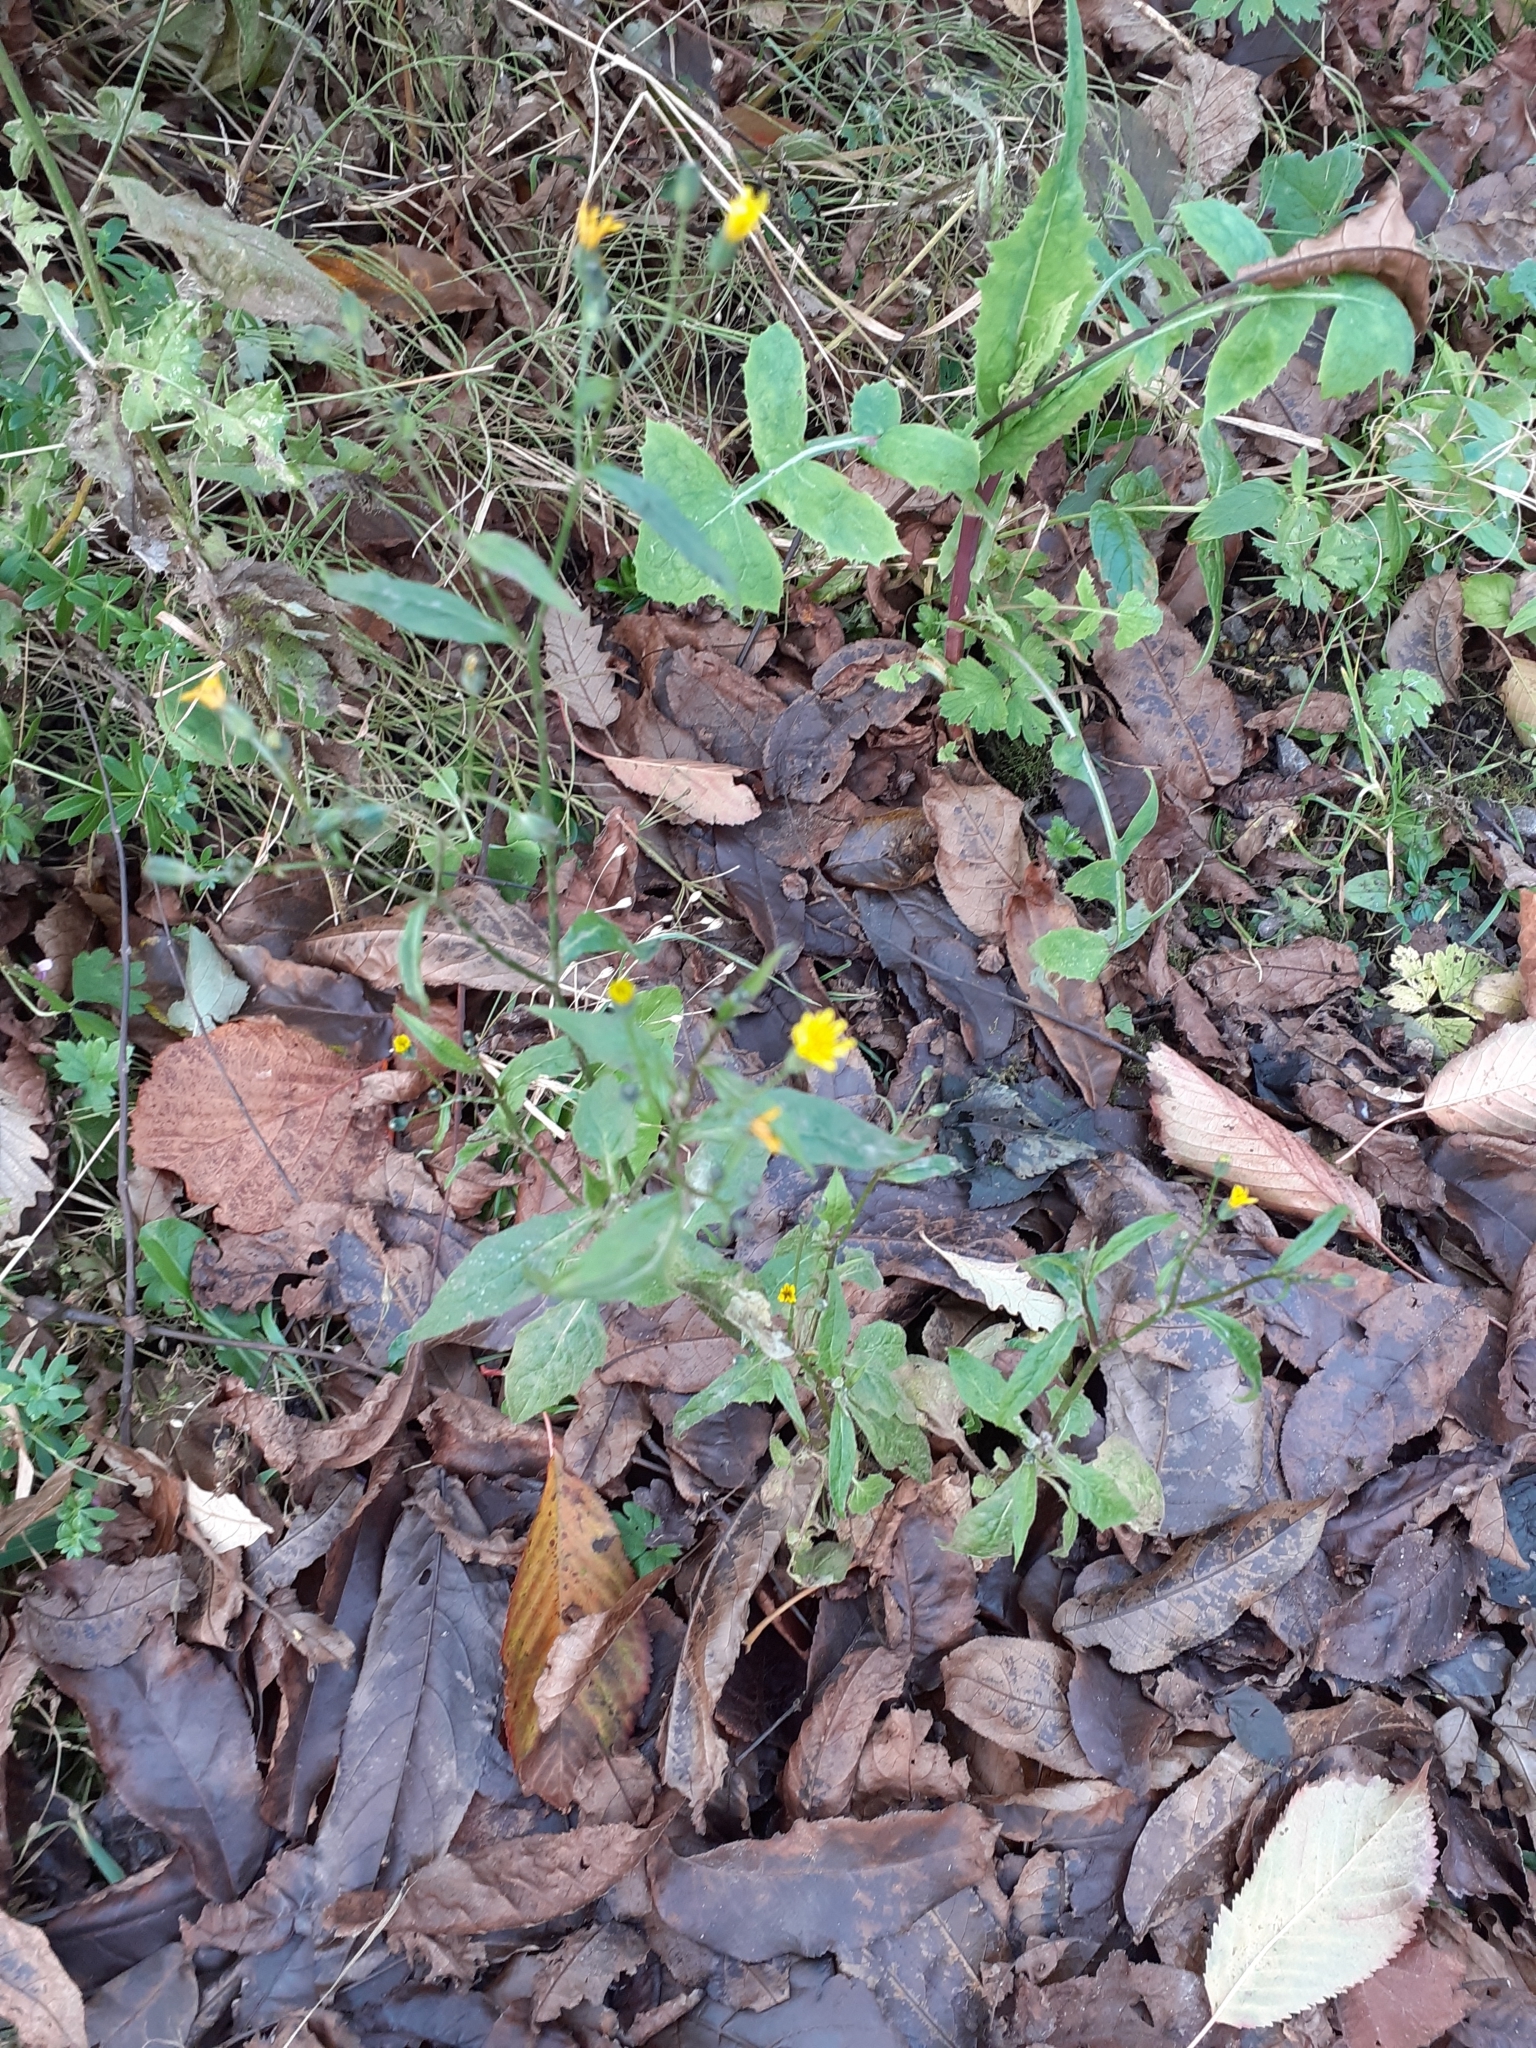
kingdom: Plantae
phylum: Tracheophyta
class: Magnoliopsida
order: Asterales
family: Asteraceae
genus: Lapsana
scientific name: Lapsana communis
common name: Nipplewort
